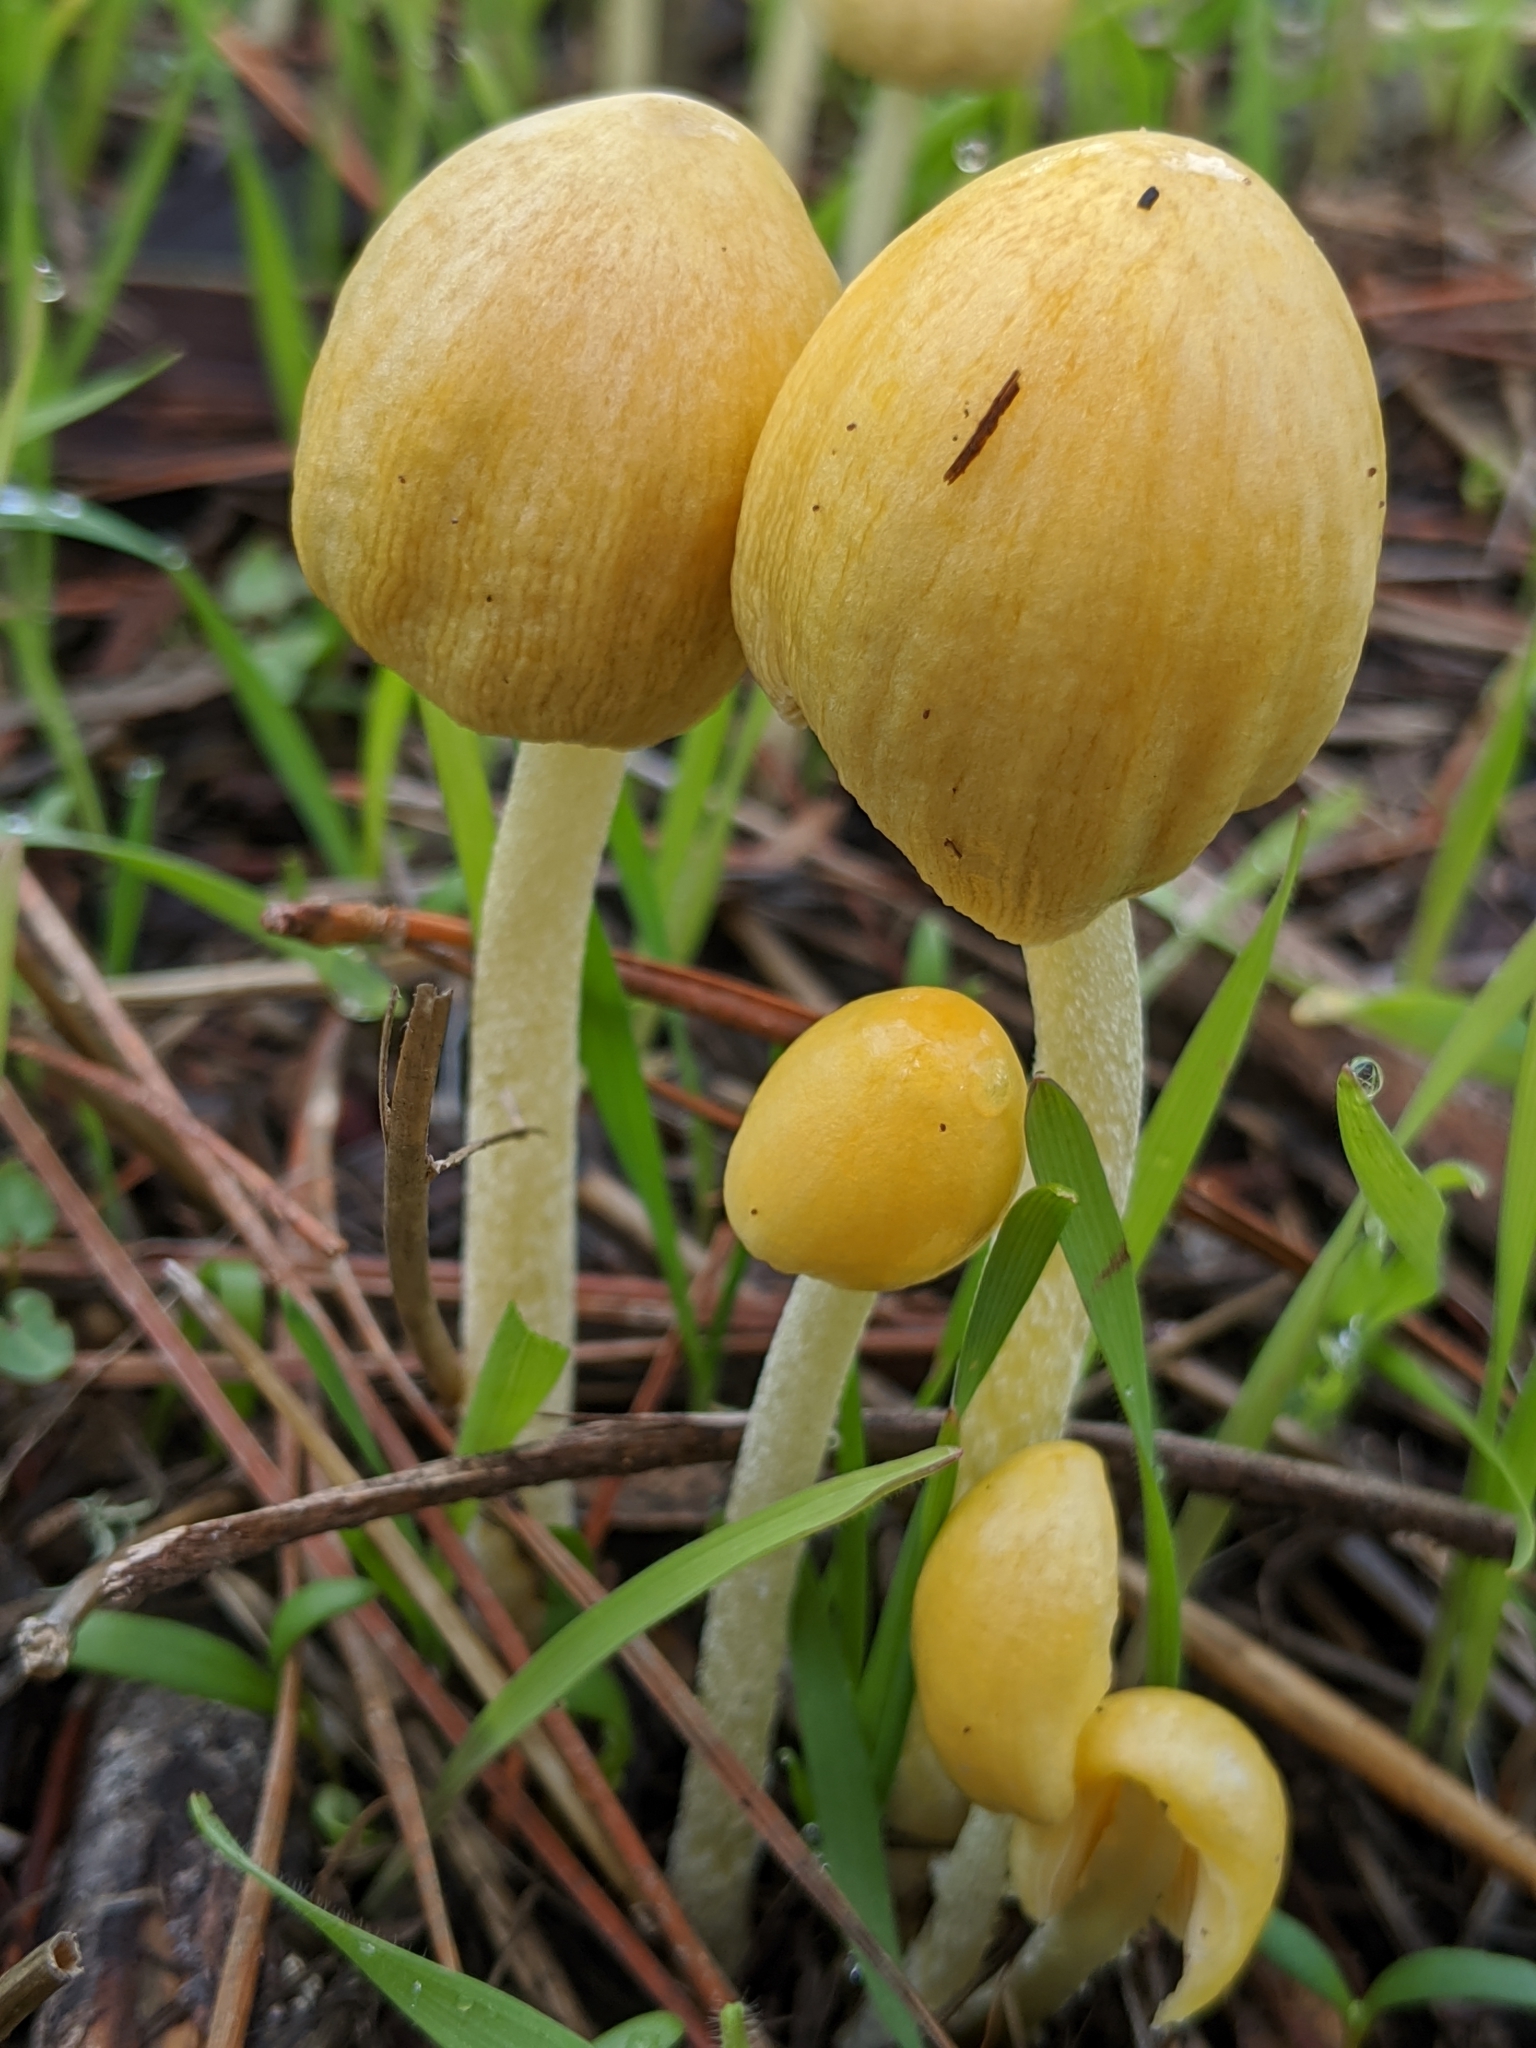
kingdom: Fungi
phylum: Basidiomycota
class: Agaricomycetes
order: Agaricales
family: Bolbitiaceae
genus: Bolbitius
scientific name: Bolbitius titubans
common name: Yellow fieldcap
